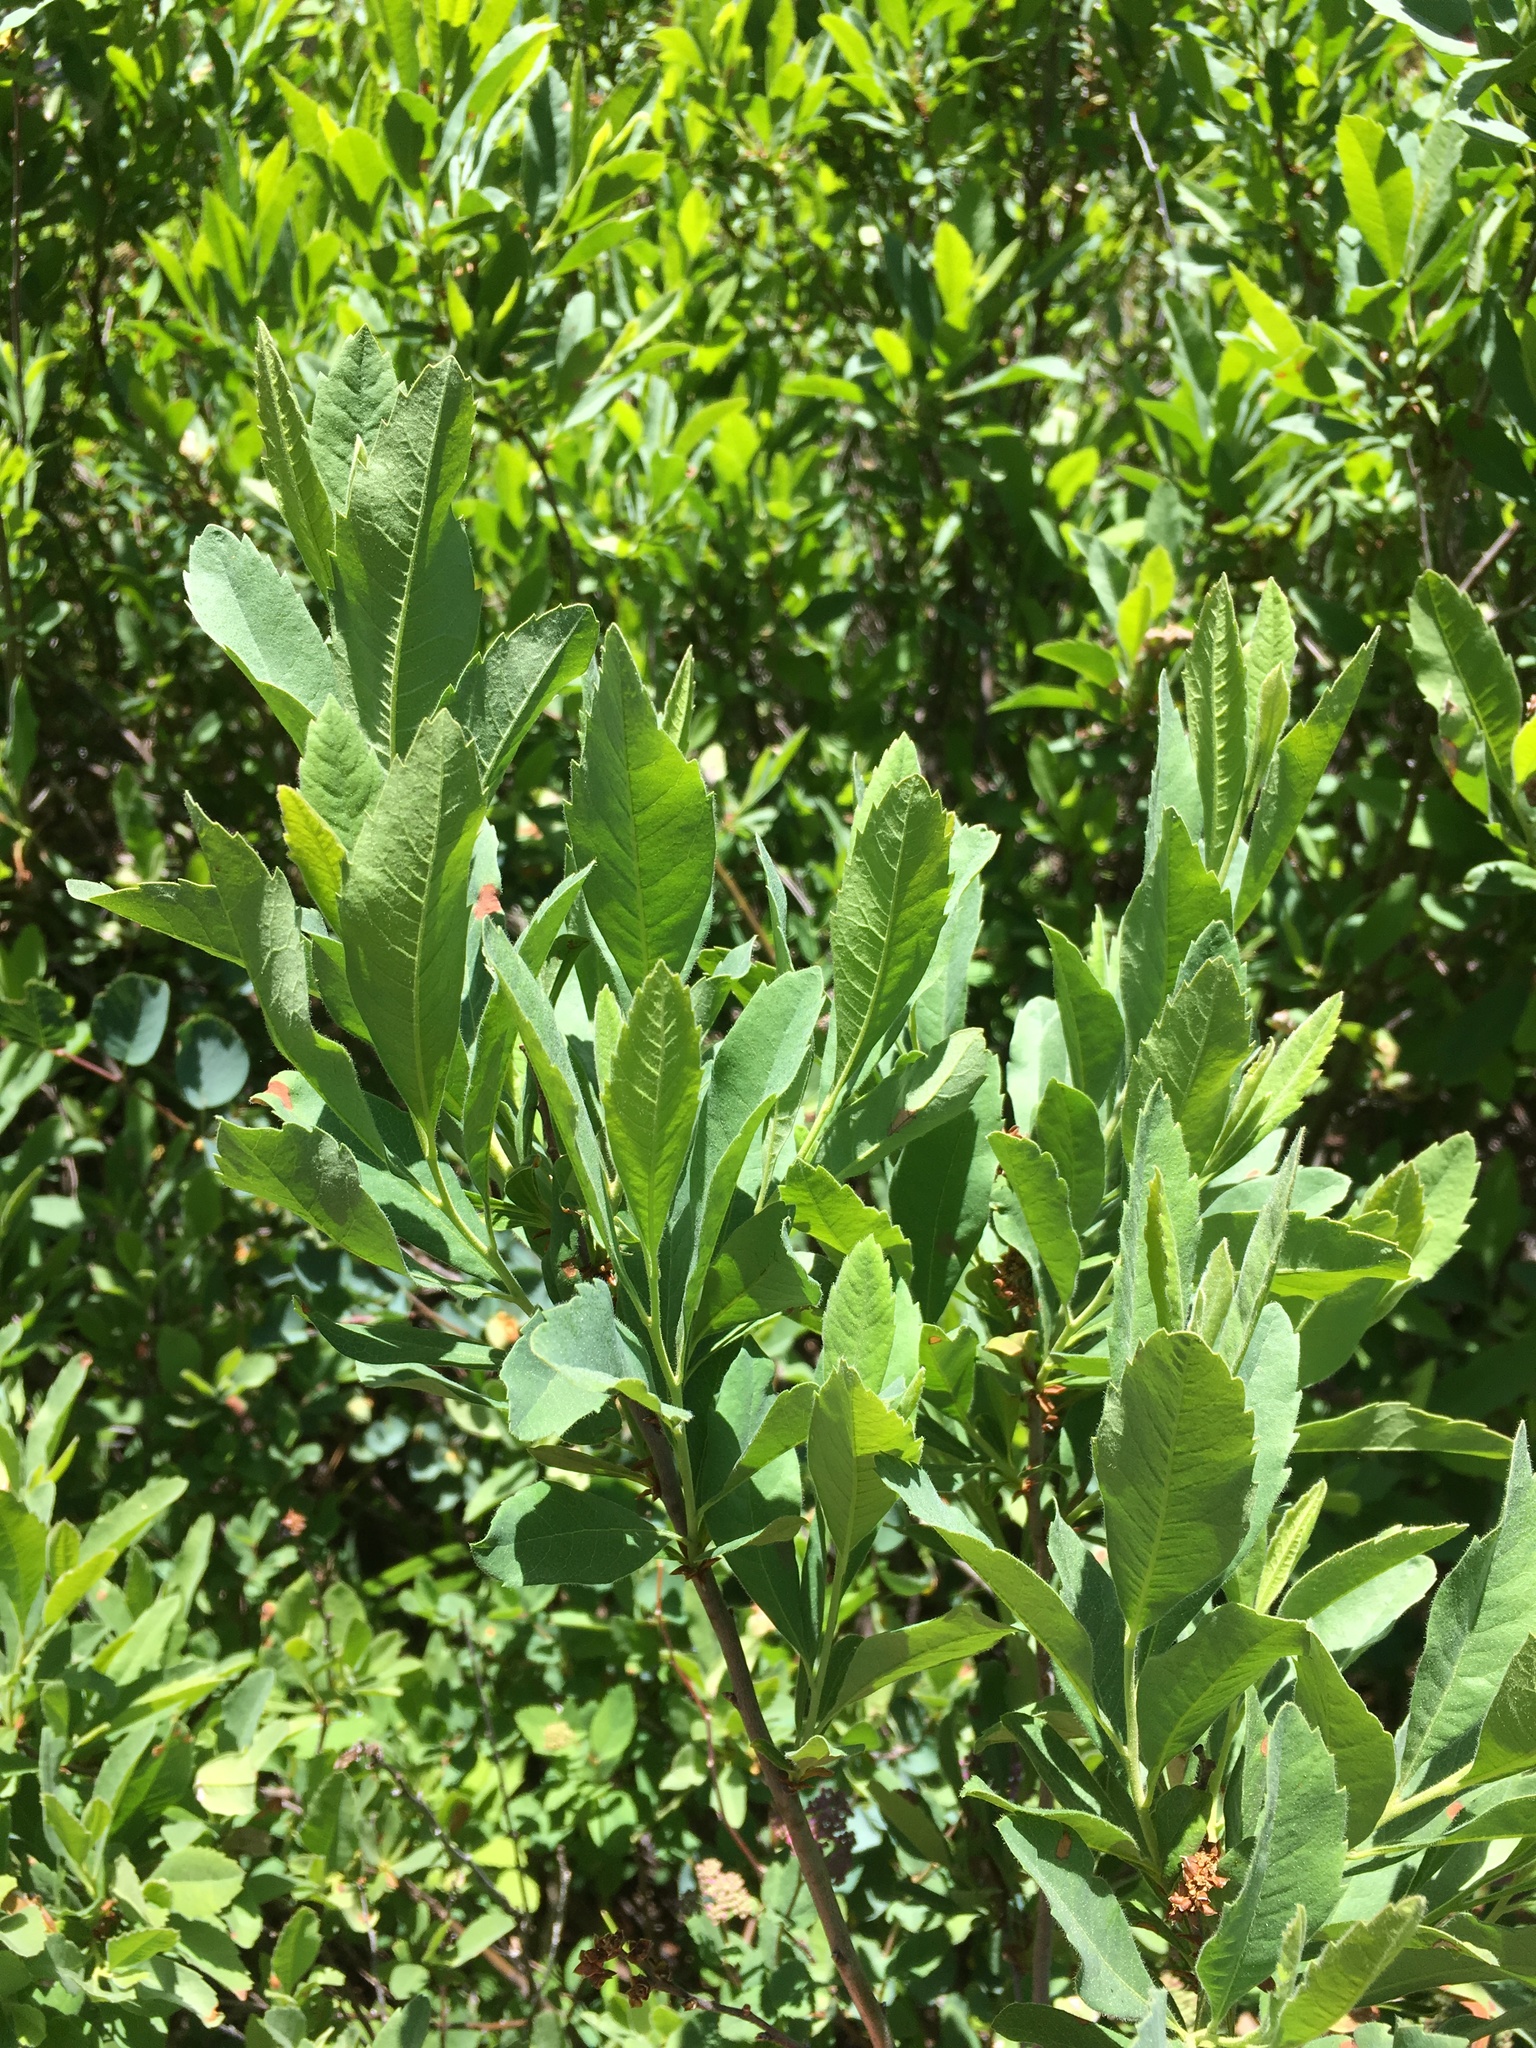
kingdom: Plantae
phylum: Tracheophyta
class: Magnoliopsida
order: Fagales
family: Myricaceae
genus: Myrica
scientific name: Myrica hartwegii
